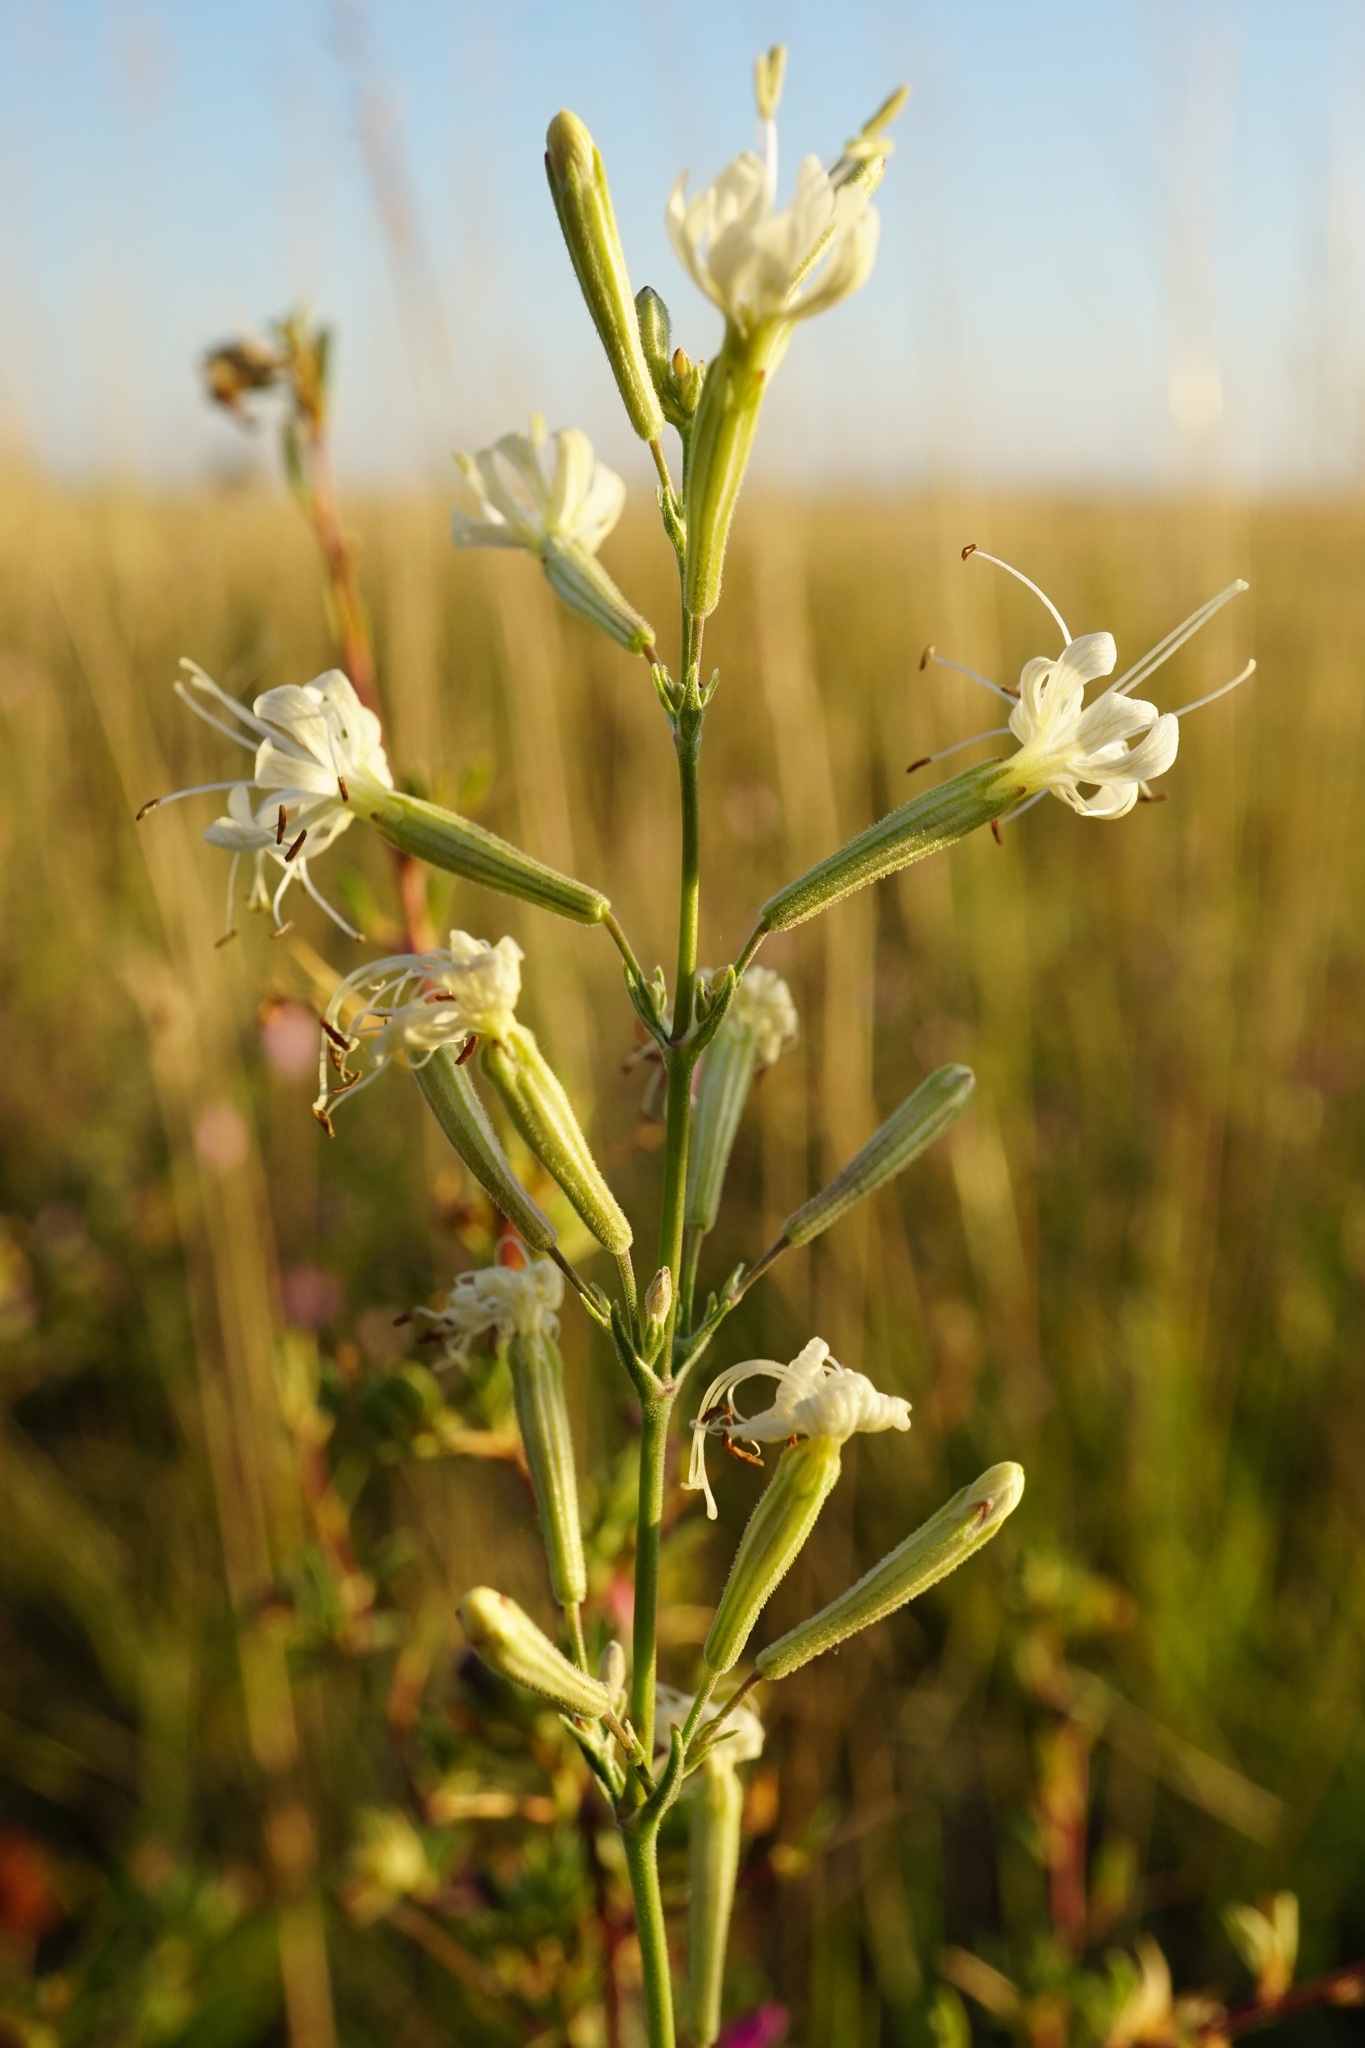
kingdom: Plantae
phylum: Tracheophyta
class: Magnoliopsida
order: Caryophyllales
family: Caryophyllaceae
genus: Silene
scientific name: Silene multiflora
